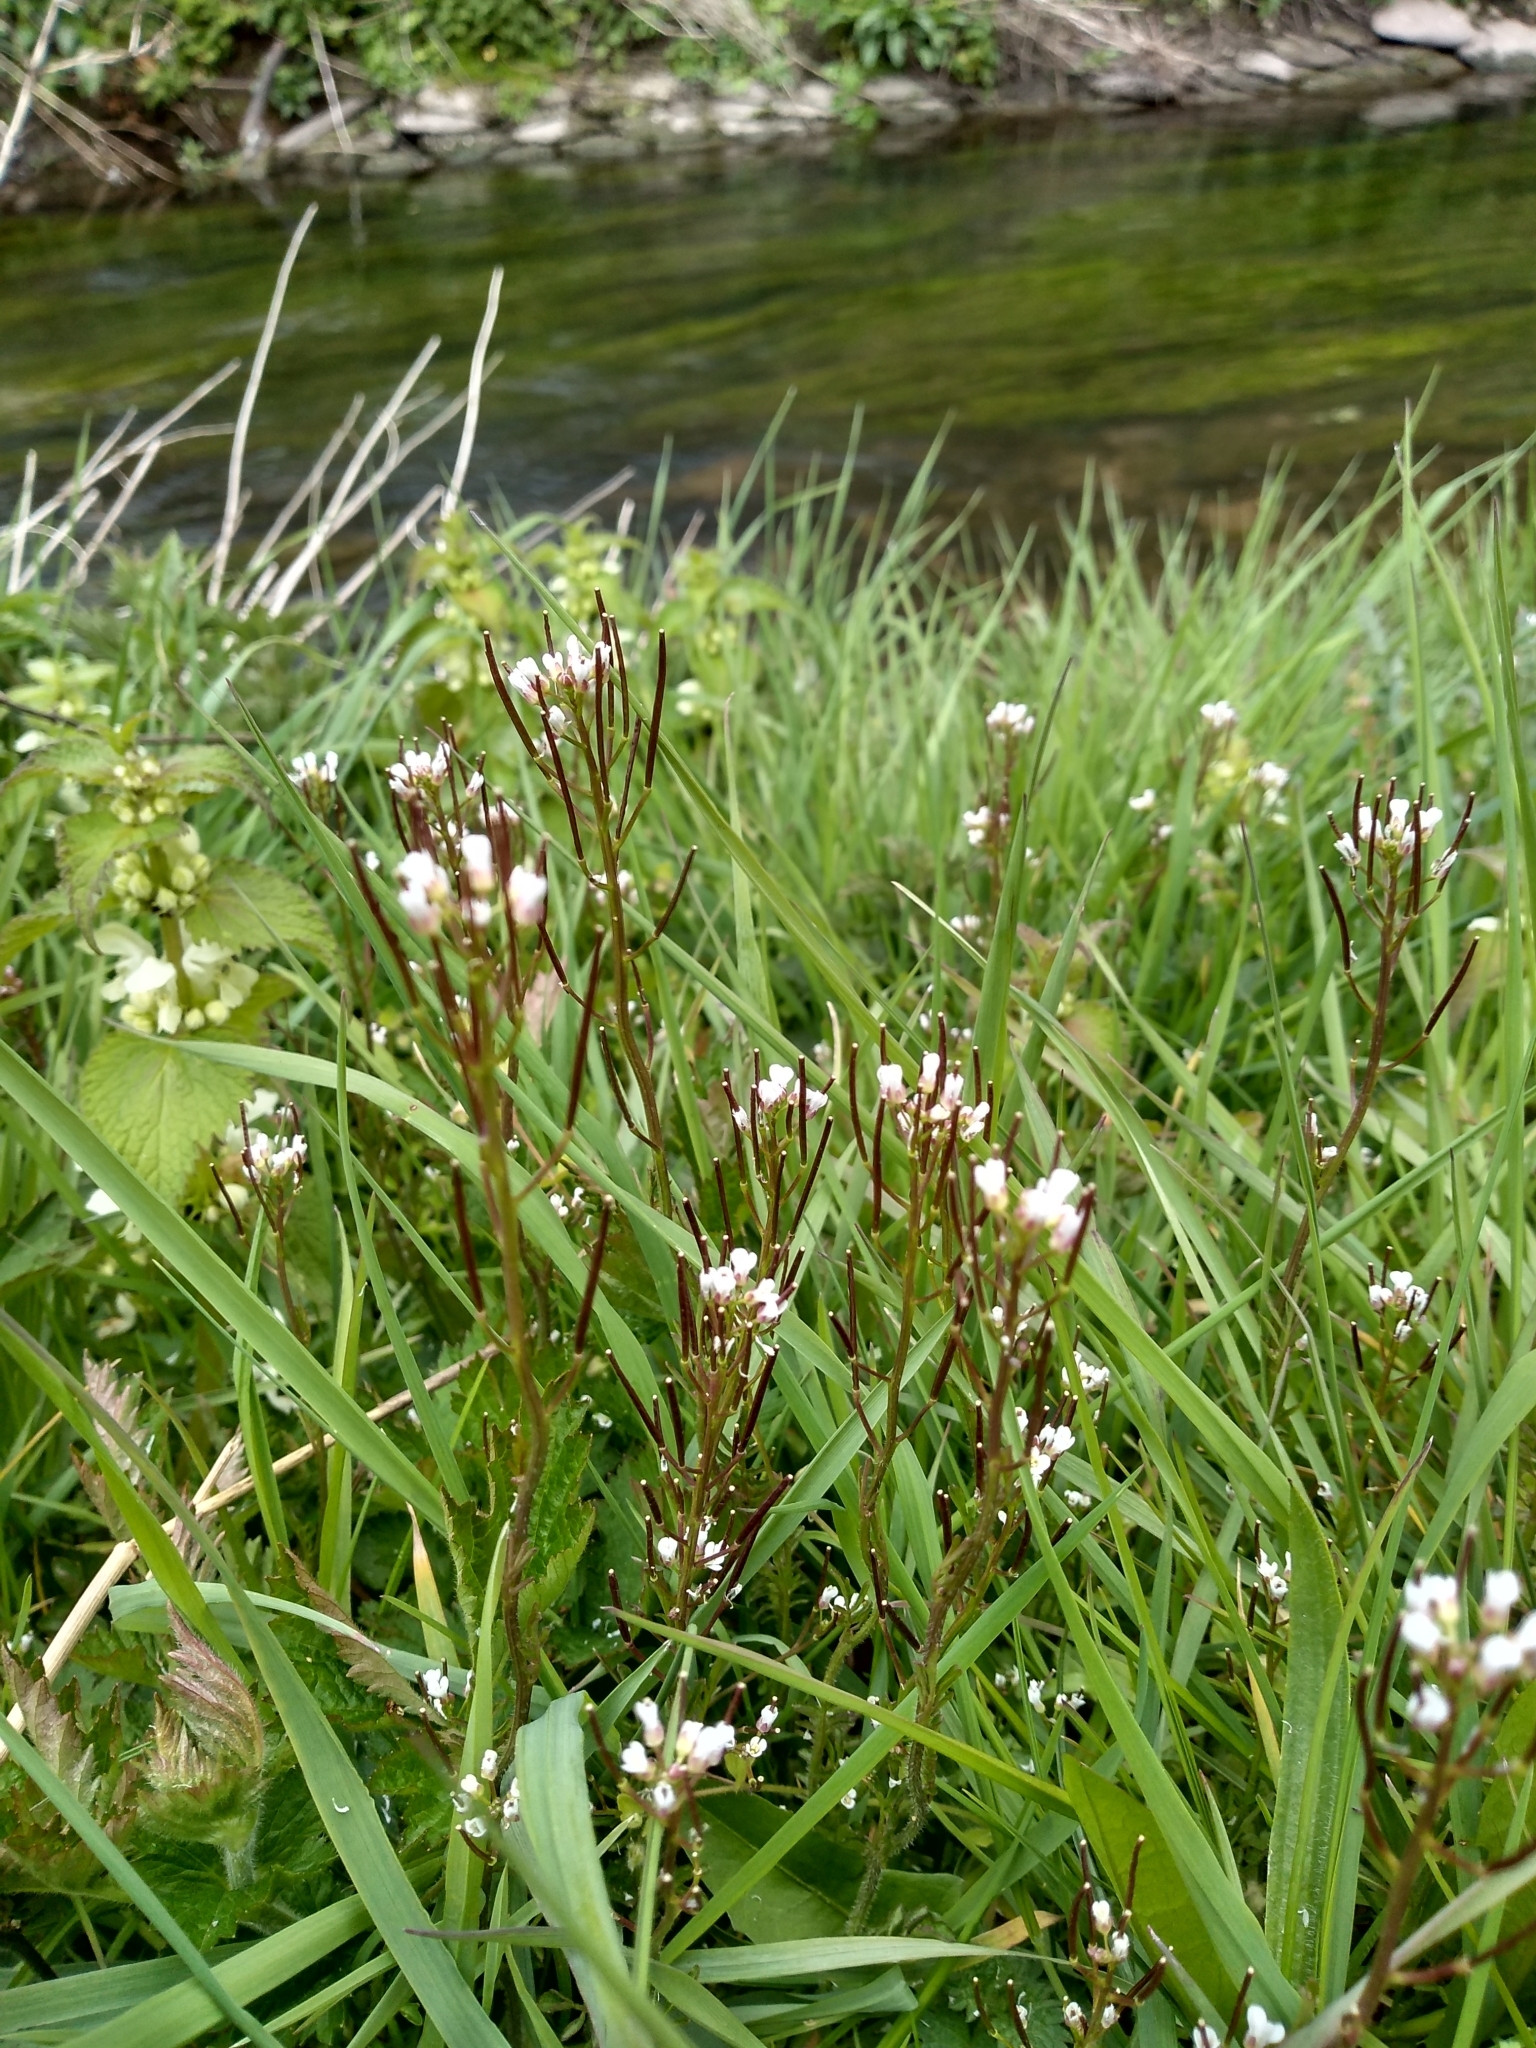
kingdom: Plantae
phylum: Tracheophyta
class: Magnoliopsida
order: Brassicales
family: Brassicaceae
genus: Cardamine
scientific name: Cardamine flexuosa
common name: Woodland bittercress
